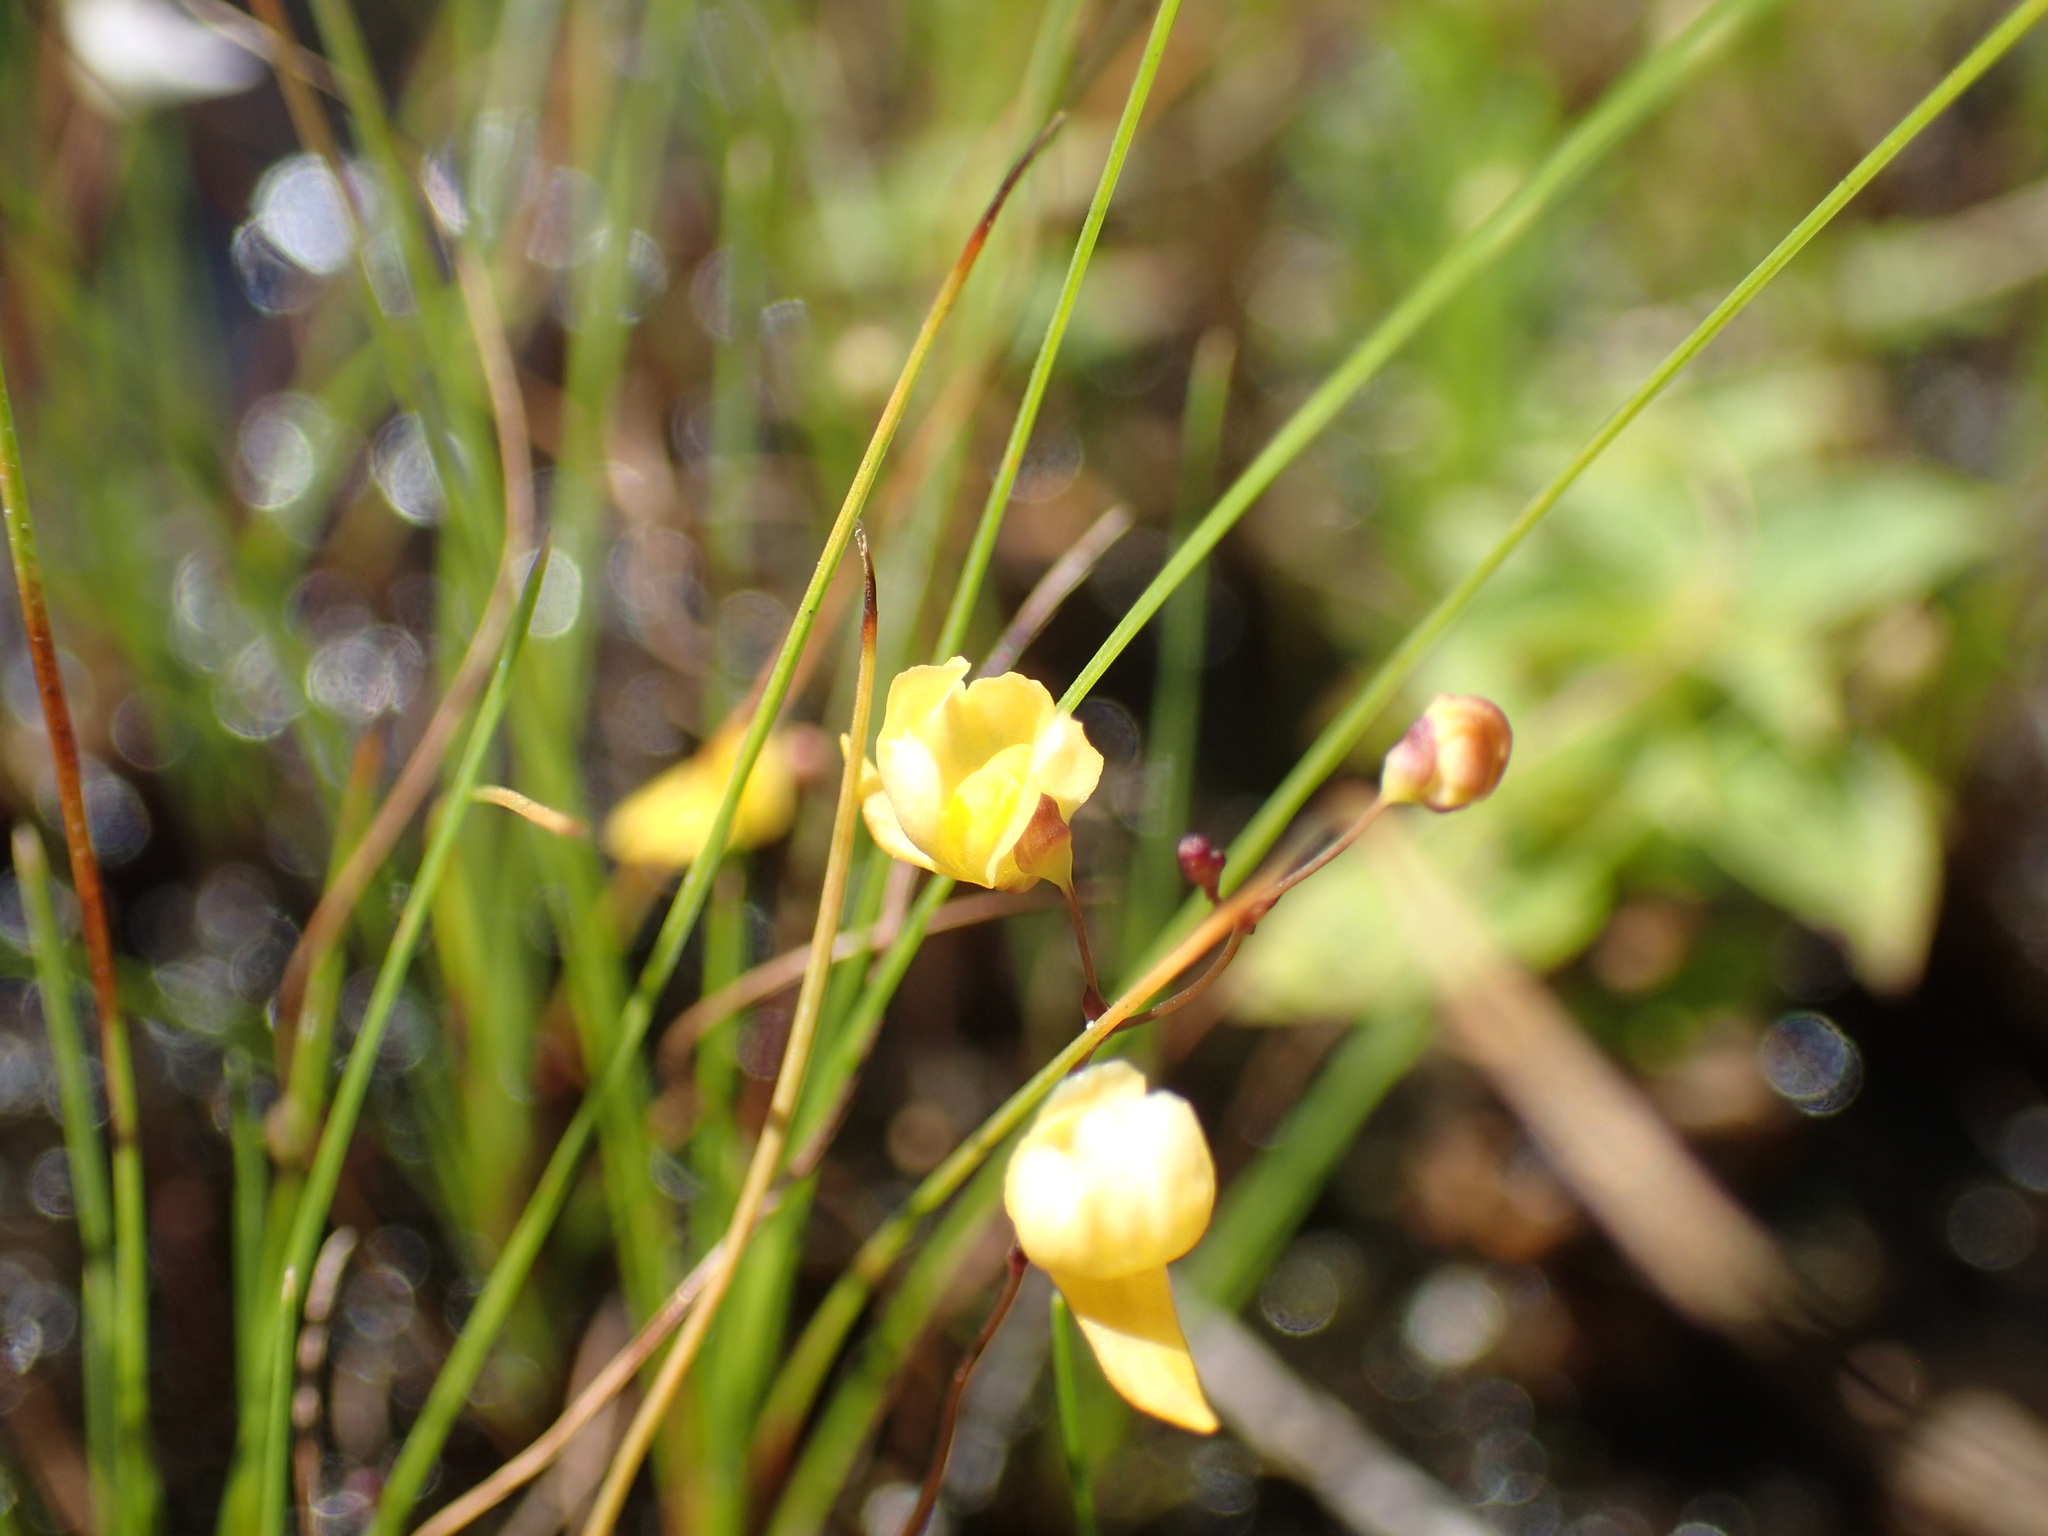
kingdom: Plantae
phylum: Tracheophyta
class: Magnoliopsida
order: Lamiales
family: Lentibulariaceae
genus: Utricularia
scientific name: Utricularia subulata
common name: Tiny bladderwort
